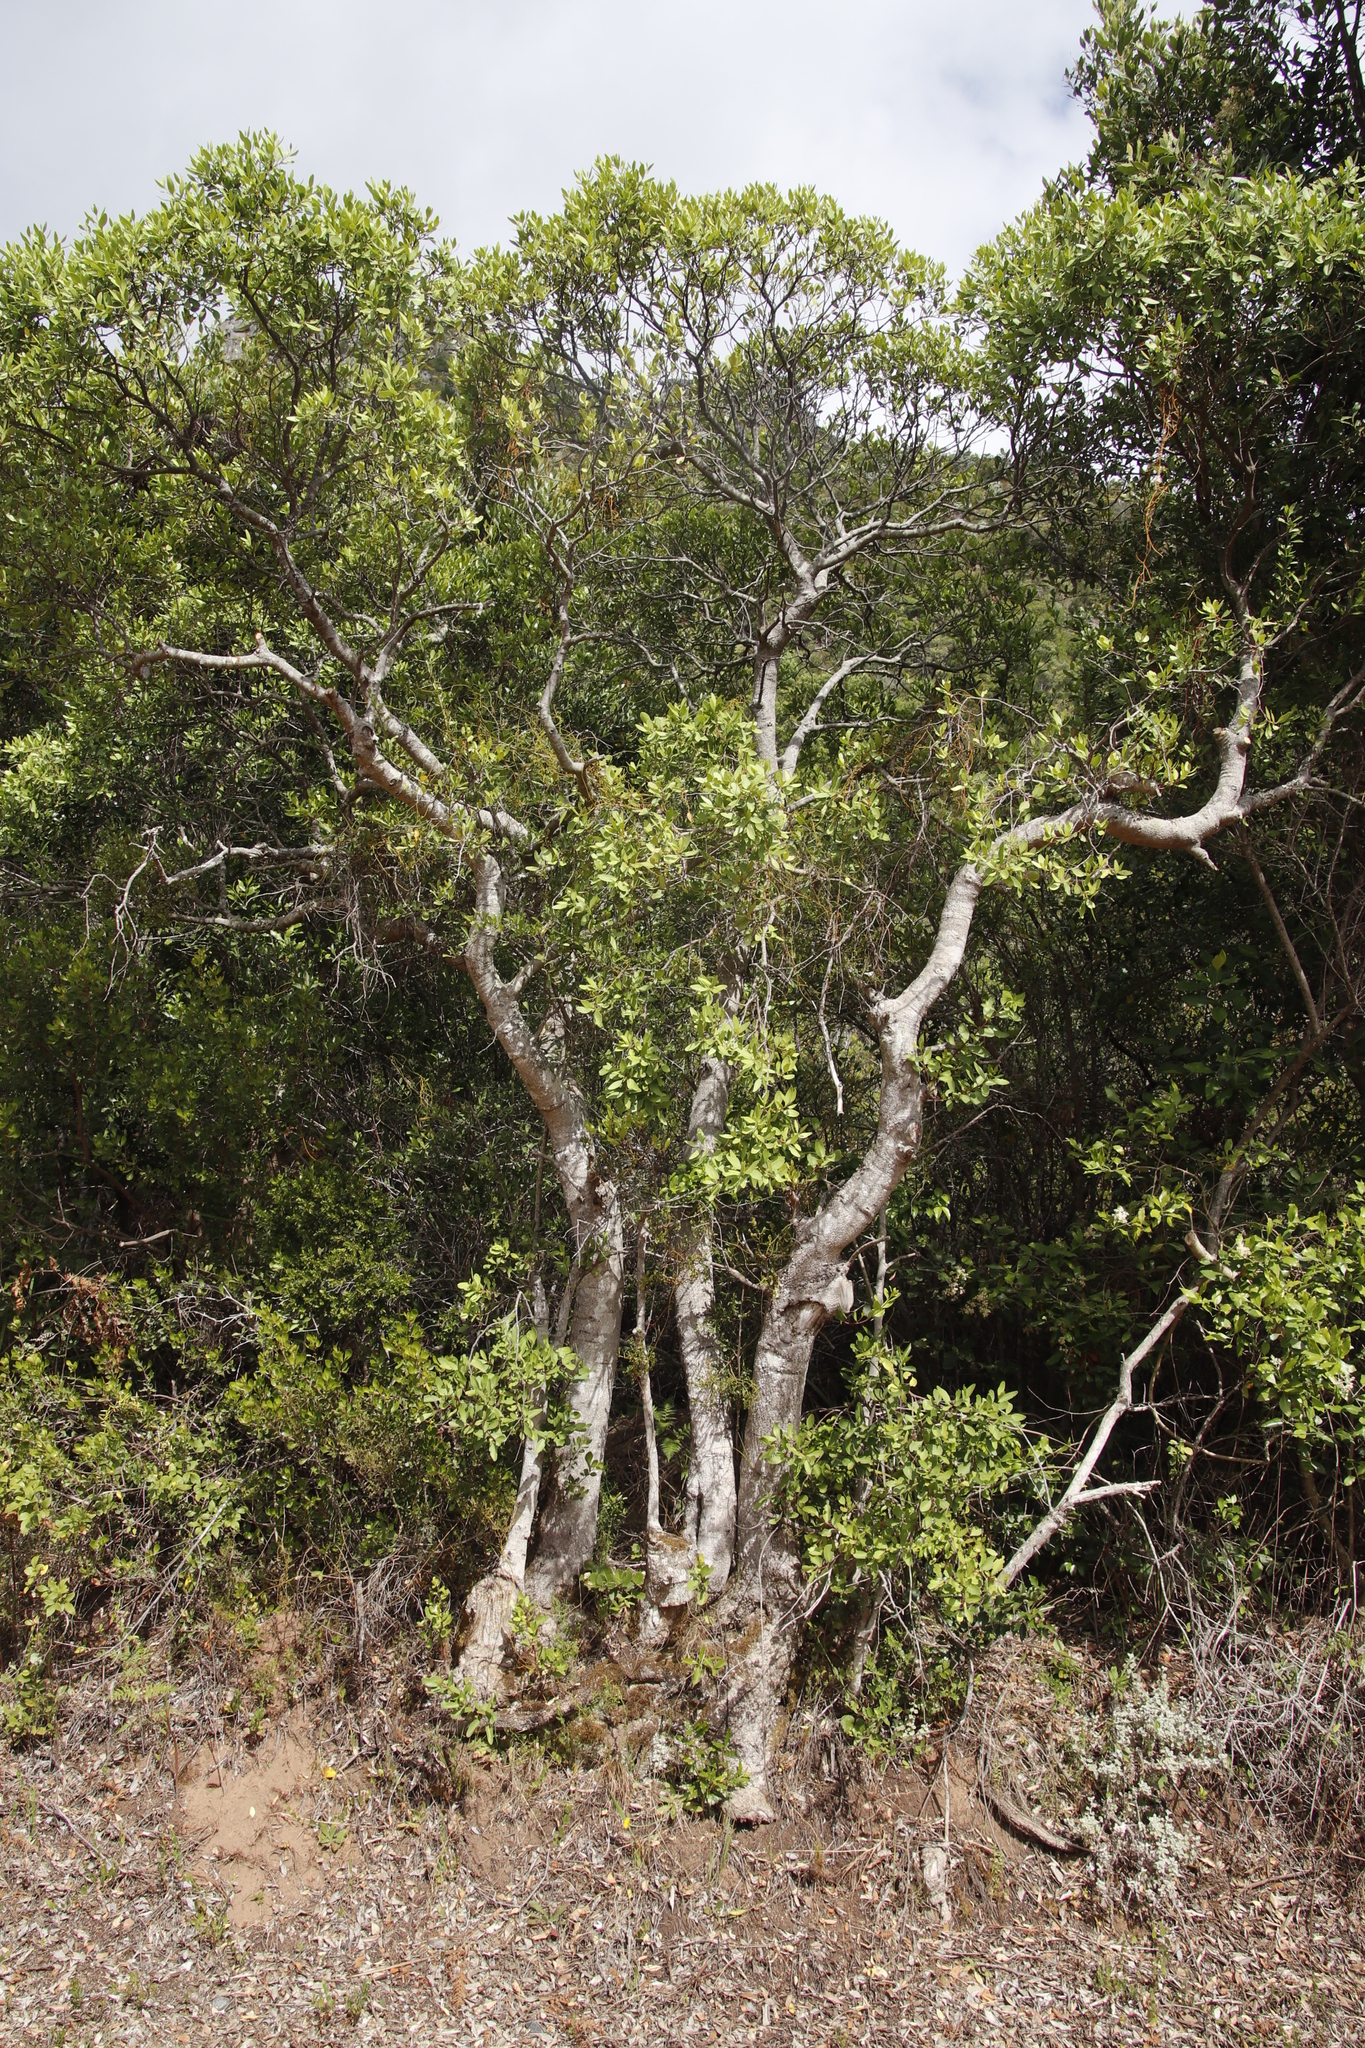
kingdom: Plantae
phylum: Tracheophyta
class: Magnoliopsida
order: Lamiales
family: Oleaceae
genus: Olea
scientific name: Olea capensis
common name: Black ironwood
